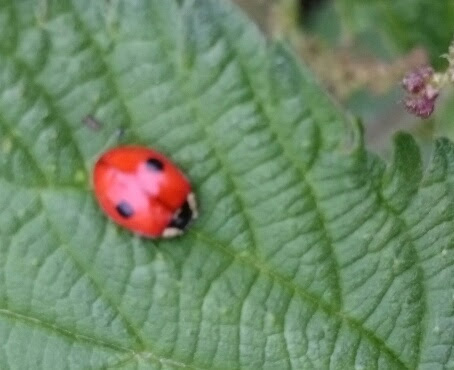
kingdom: Animalia
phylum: Arthropoda
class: Insecta
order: Coleoptera
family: Coccinellidae
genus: Adalia
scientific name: Adalia bipunctata
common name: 2-spot ladybird
